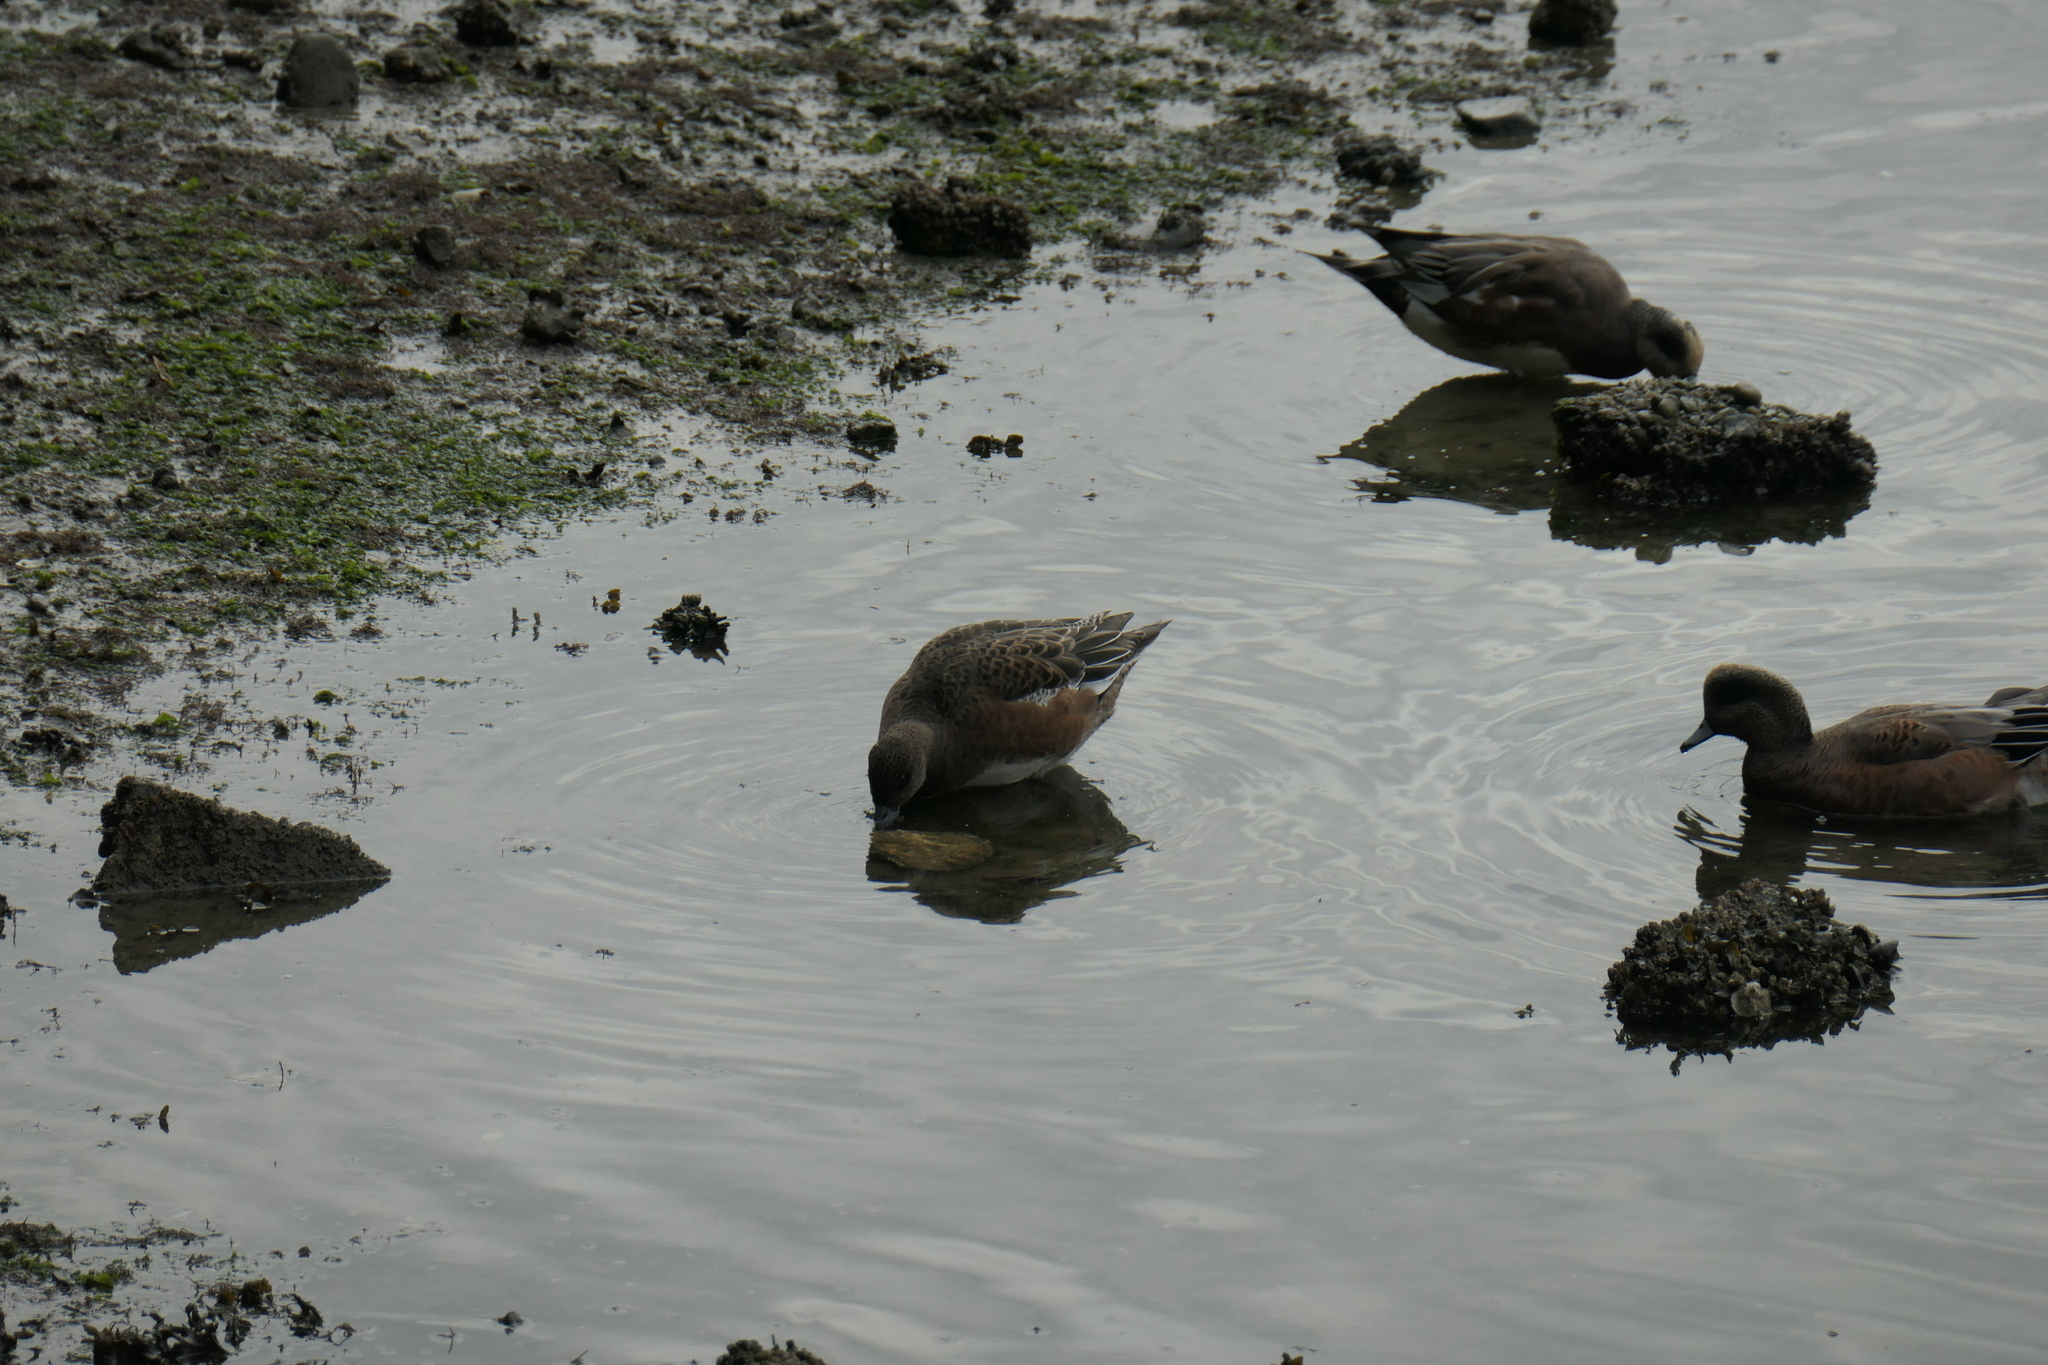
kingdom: Animalia
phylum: Chordata
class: Aves
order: Anseriformes
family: Anatidae
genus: Mareca
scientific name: Mareca americana
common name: American wigeon
